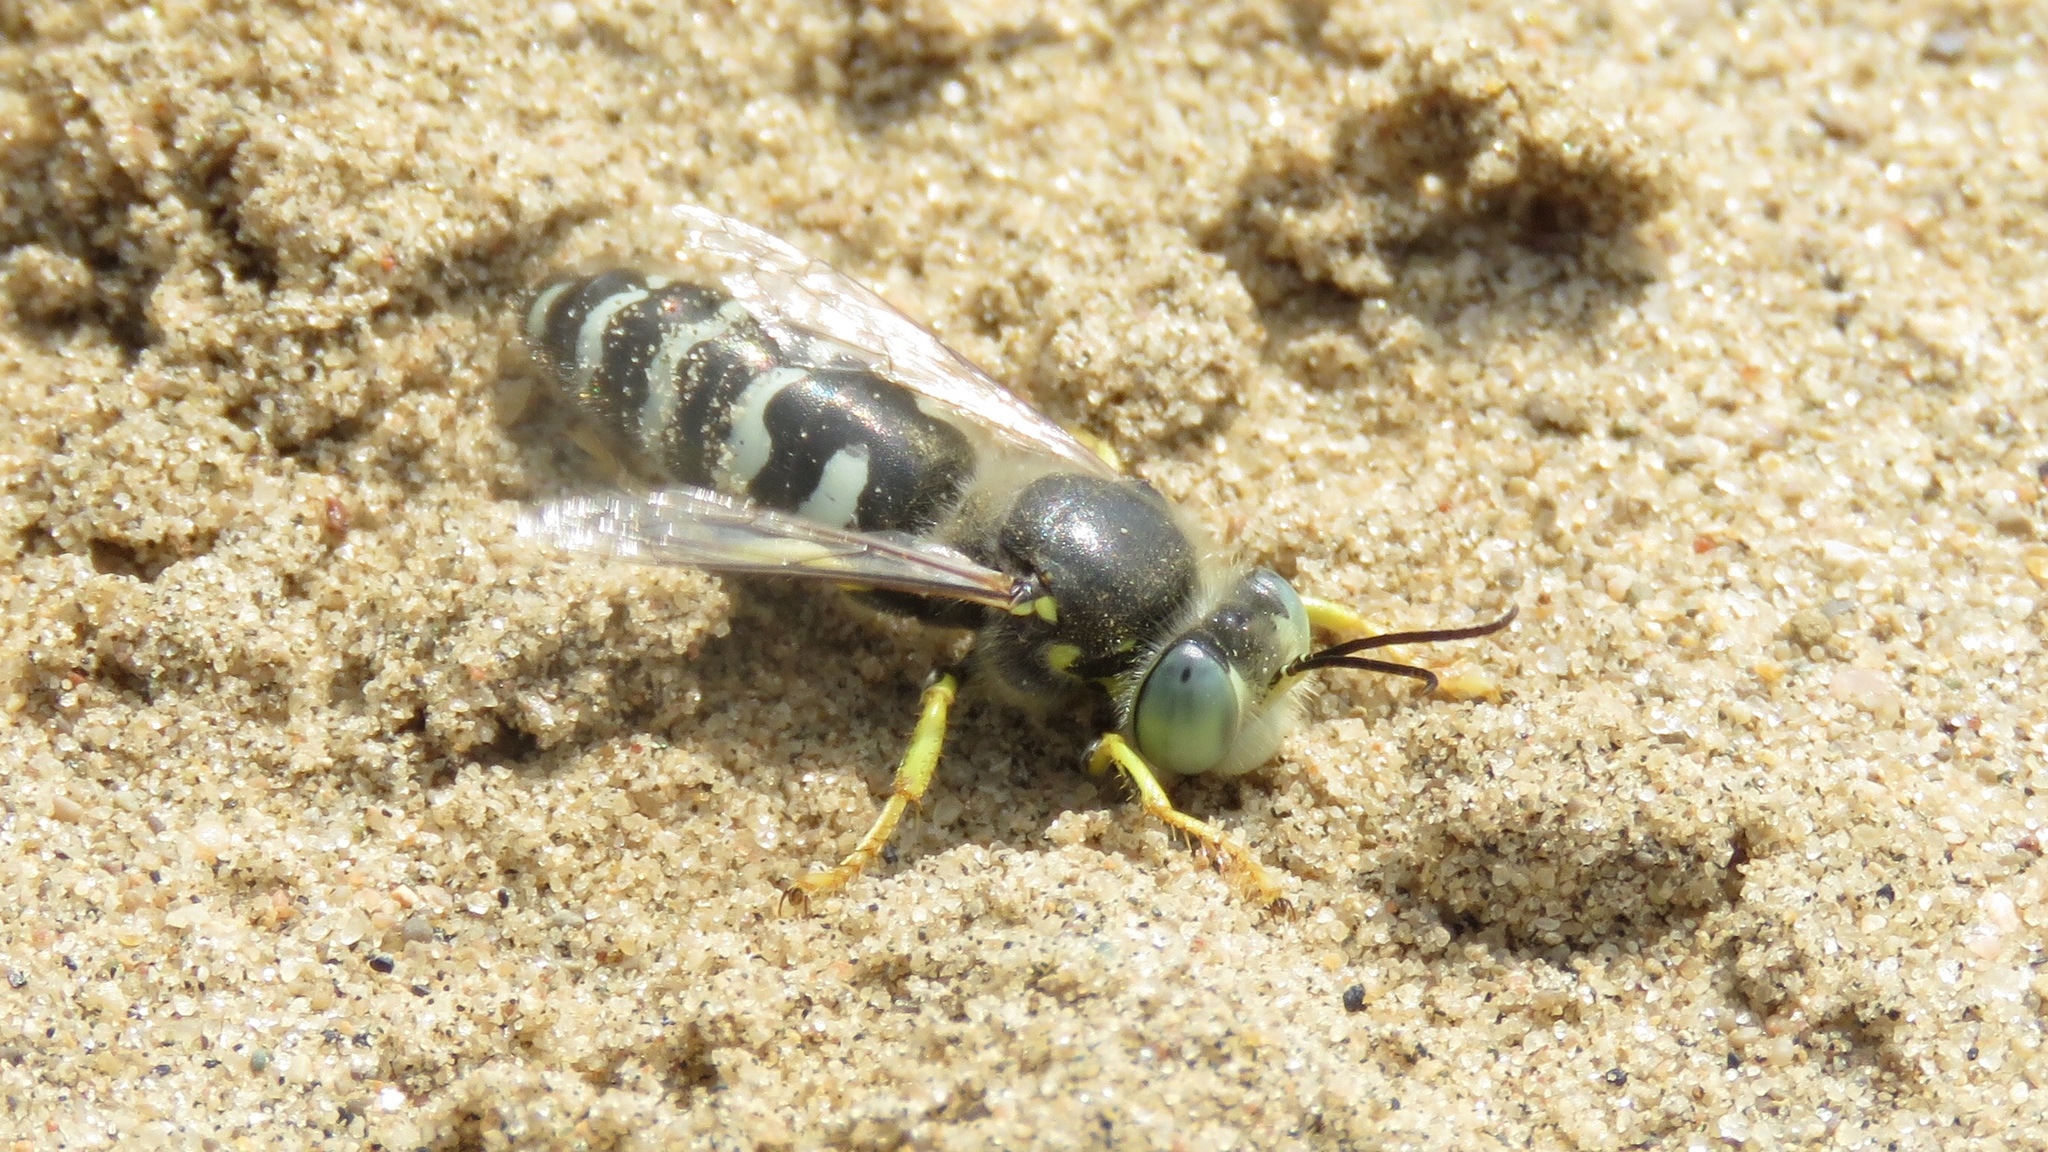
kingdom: Animalia
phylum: Arthropoda
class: Insecta
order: Hymenoptera
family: Crabronidae
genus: Bembix
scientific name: Bembix americana
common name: American sand wasp
